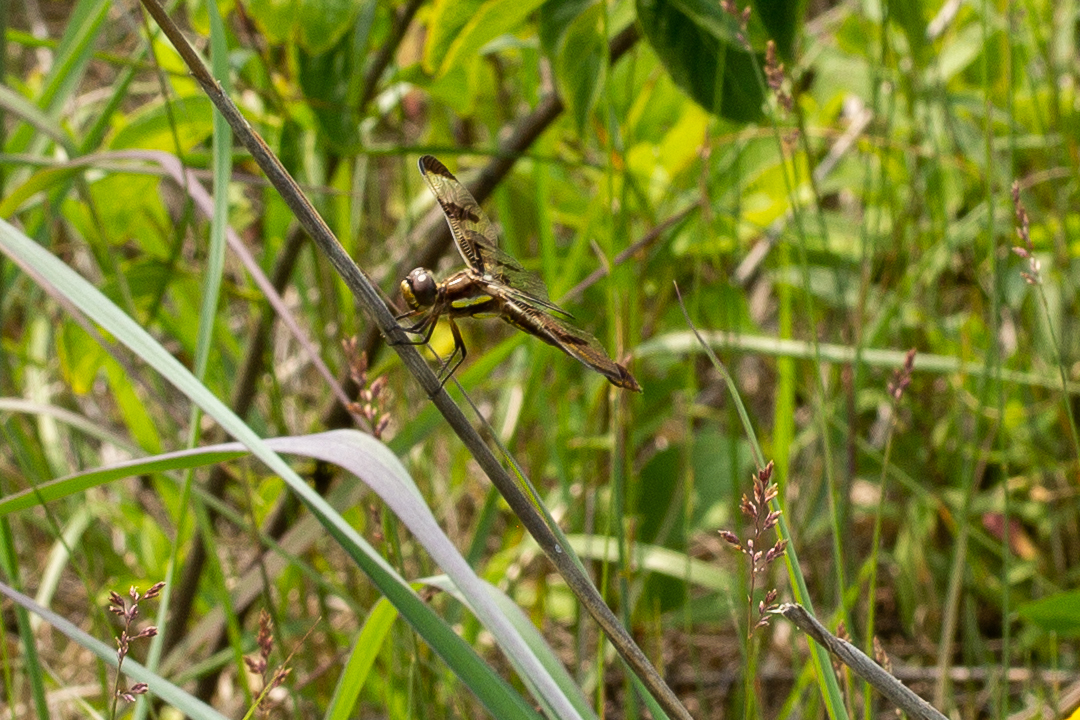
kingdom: Animalia
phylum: Arthropoda
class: Insecta
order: Odonata
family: Libellulidae
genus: Libellula
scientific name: Libellula pulchella
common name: Twelve-spotted skimmer
